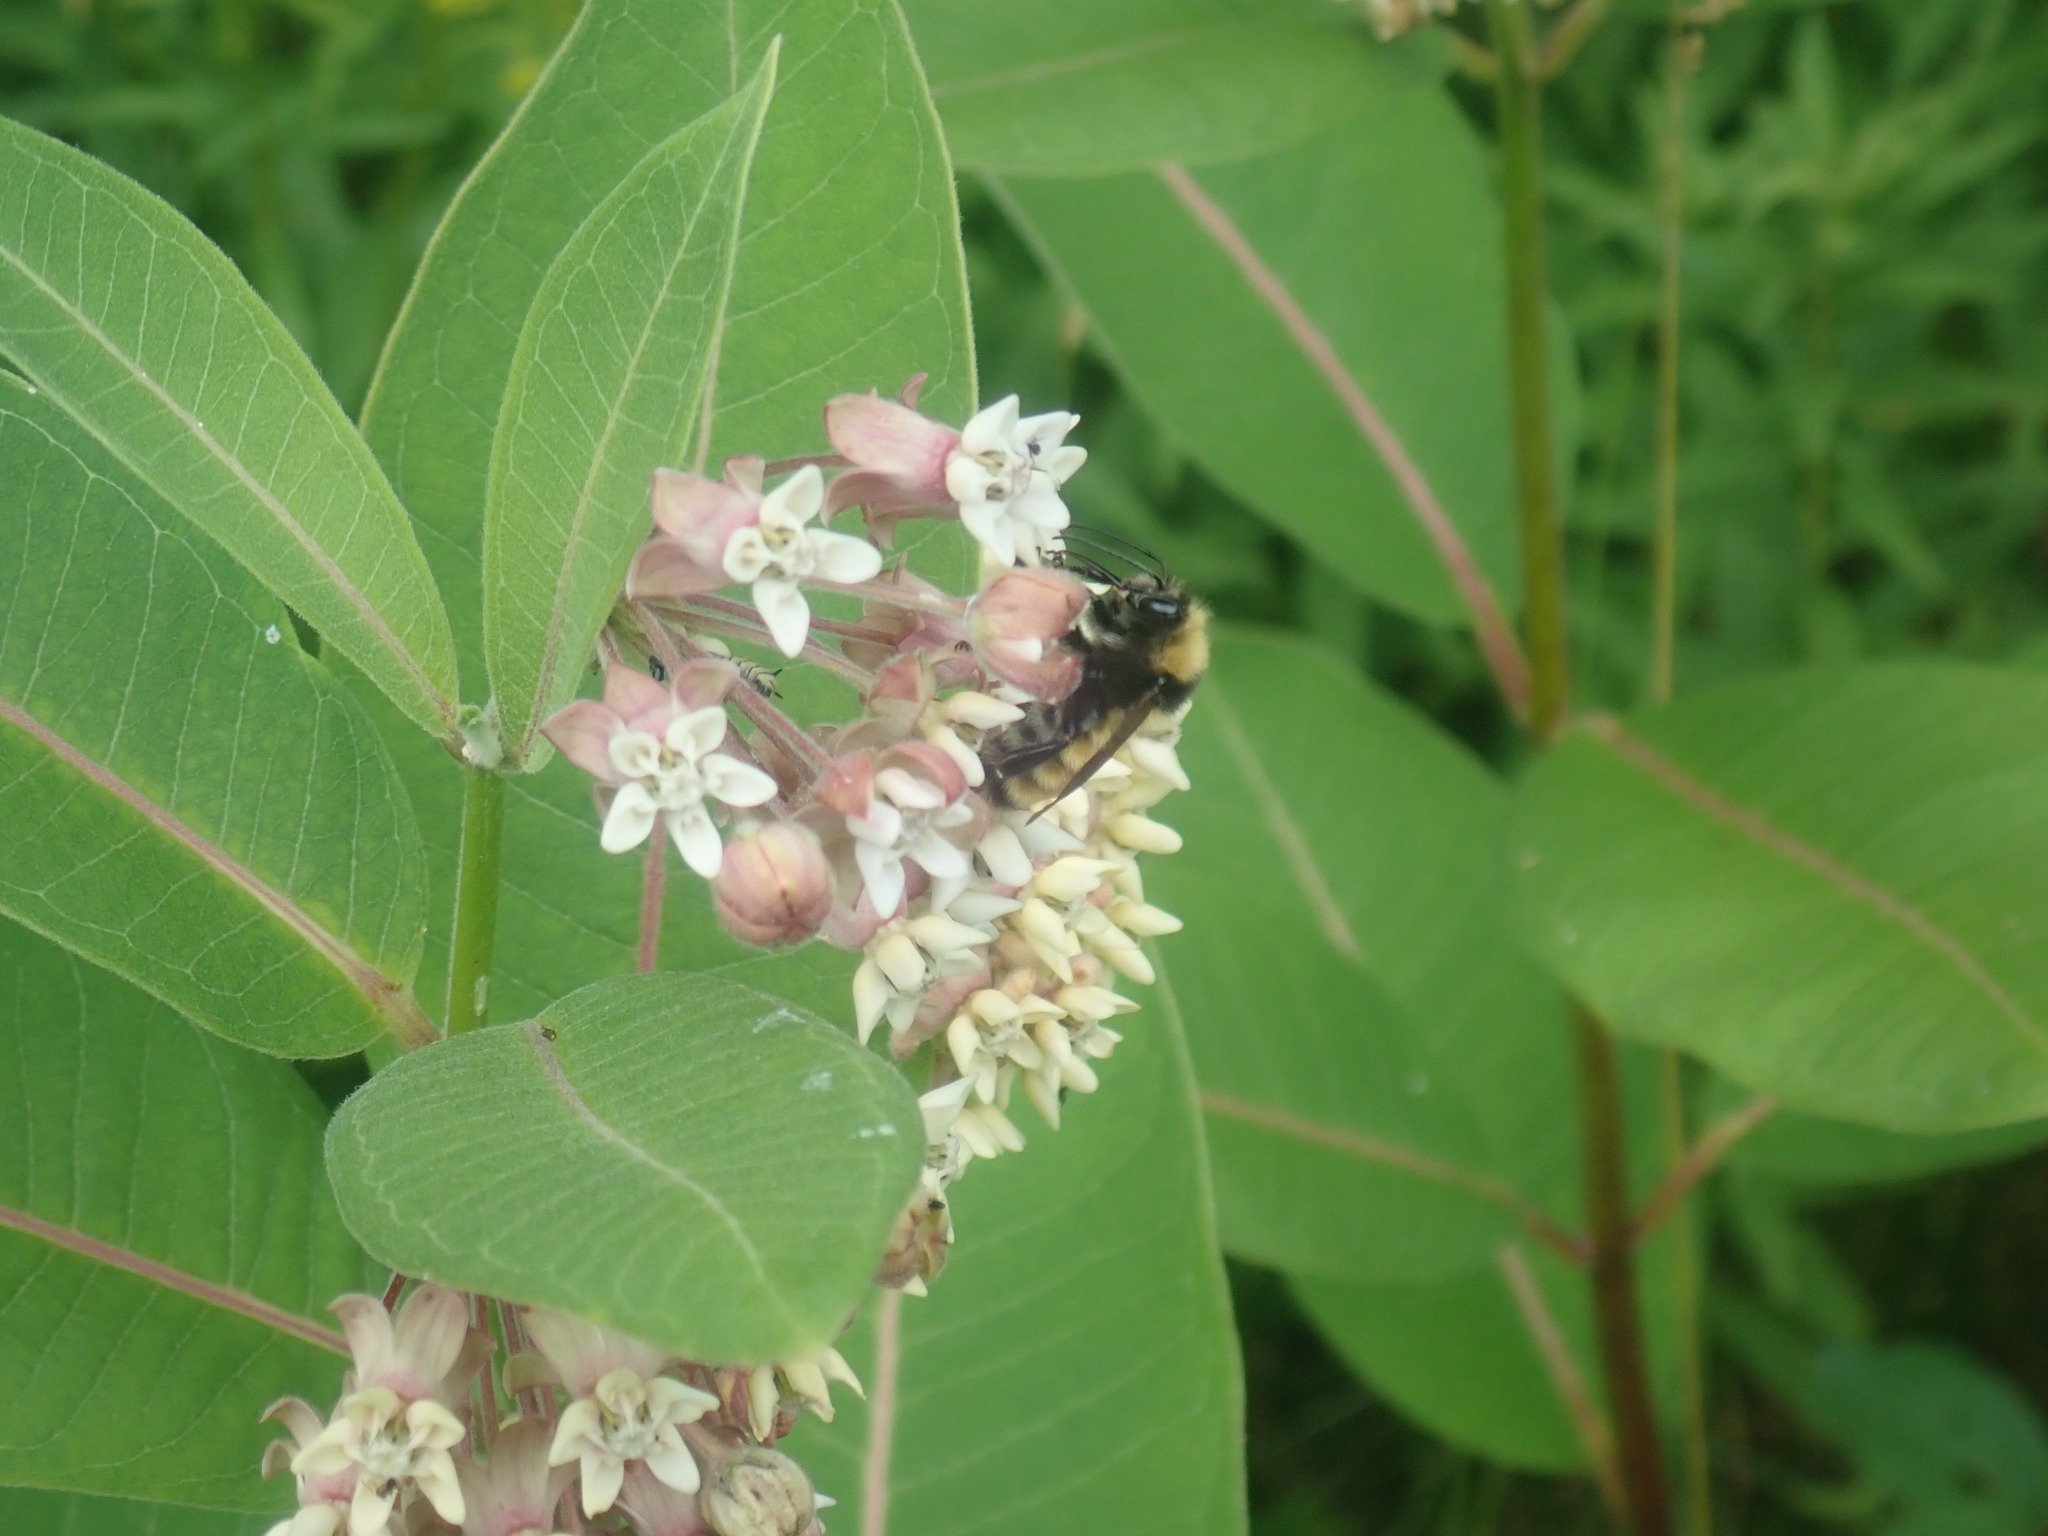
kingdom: Animalia
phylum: Arthropoda
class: Insecta
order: Hymenoptera
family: Apidae
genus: Bombus
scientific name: Bombus borealis
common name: Northern amber bumble bee
